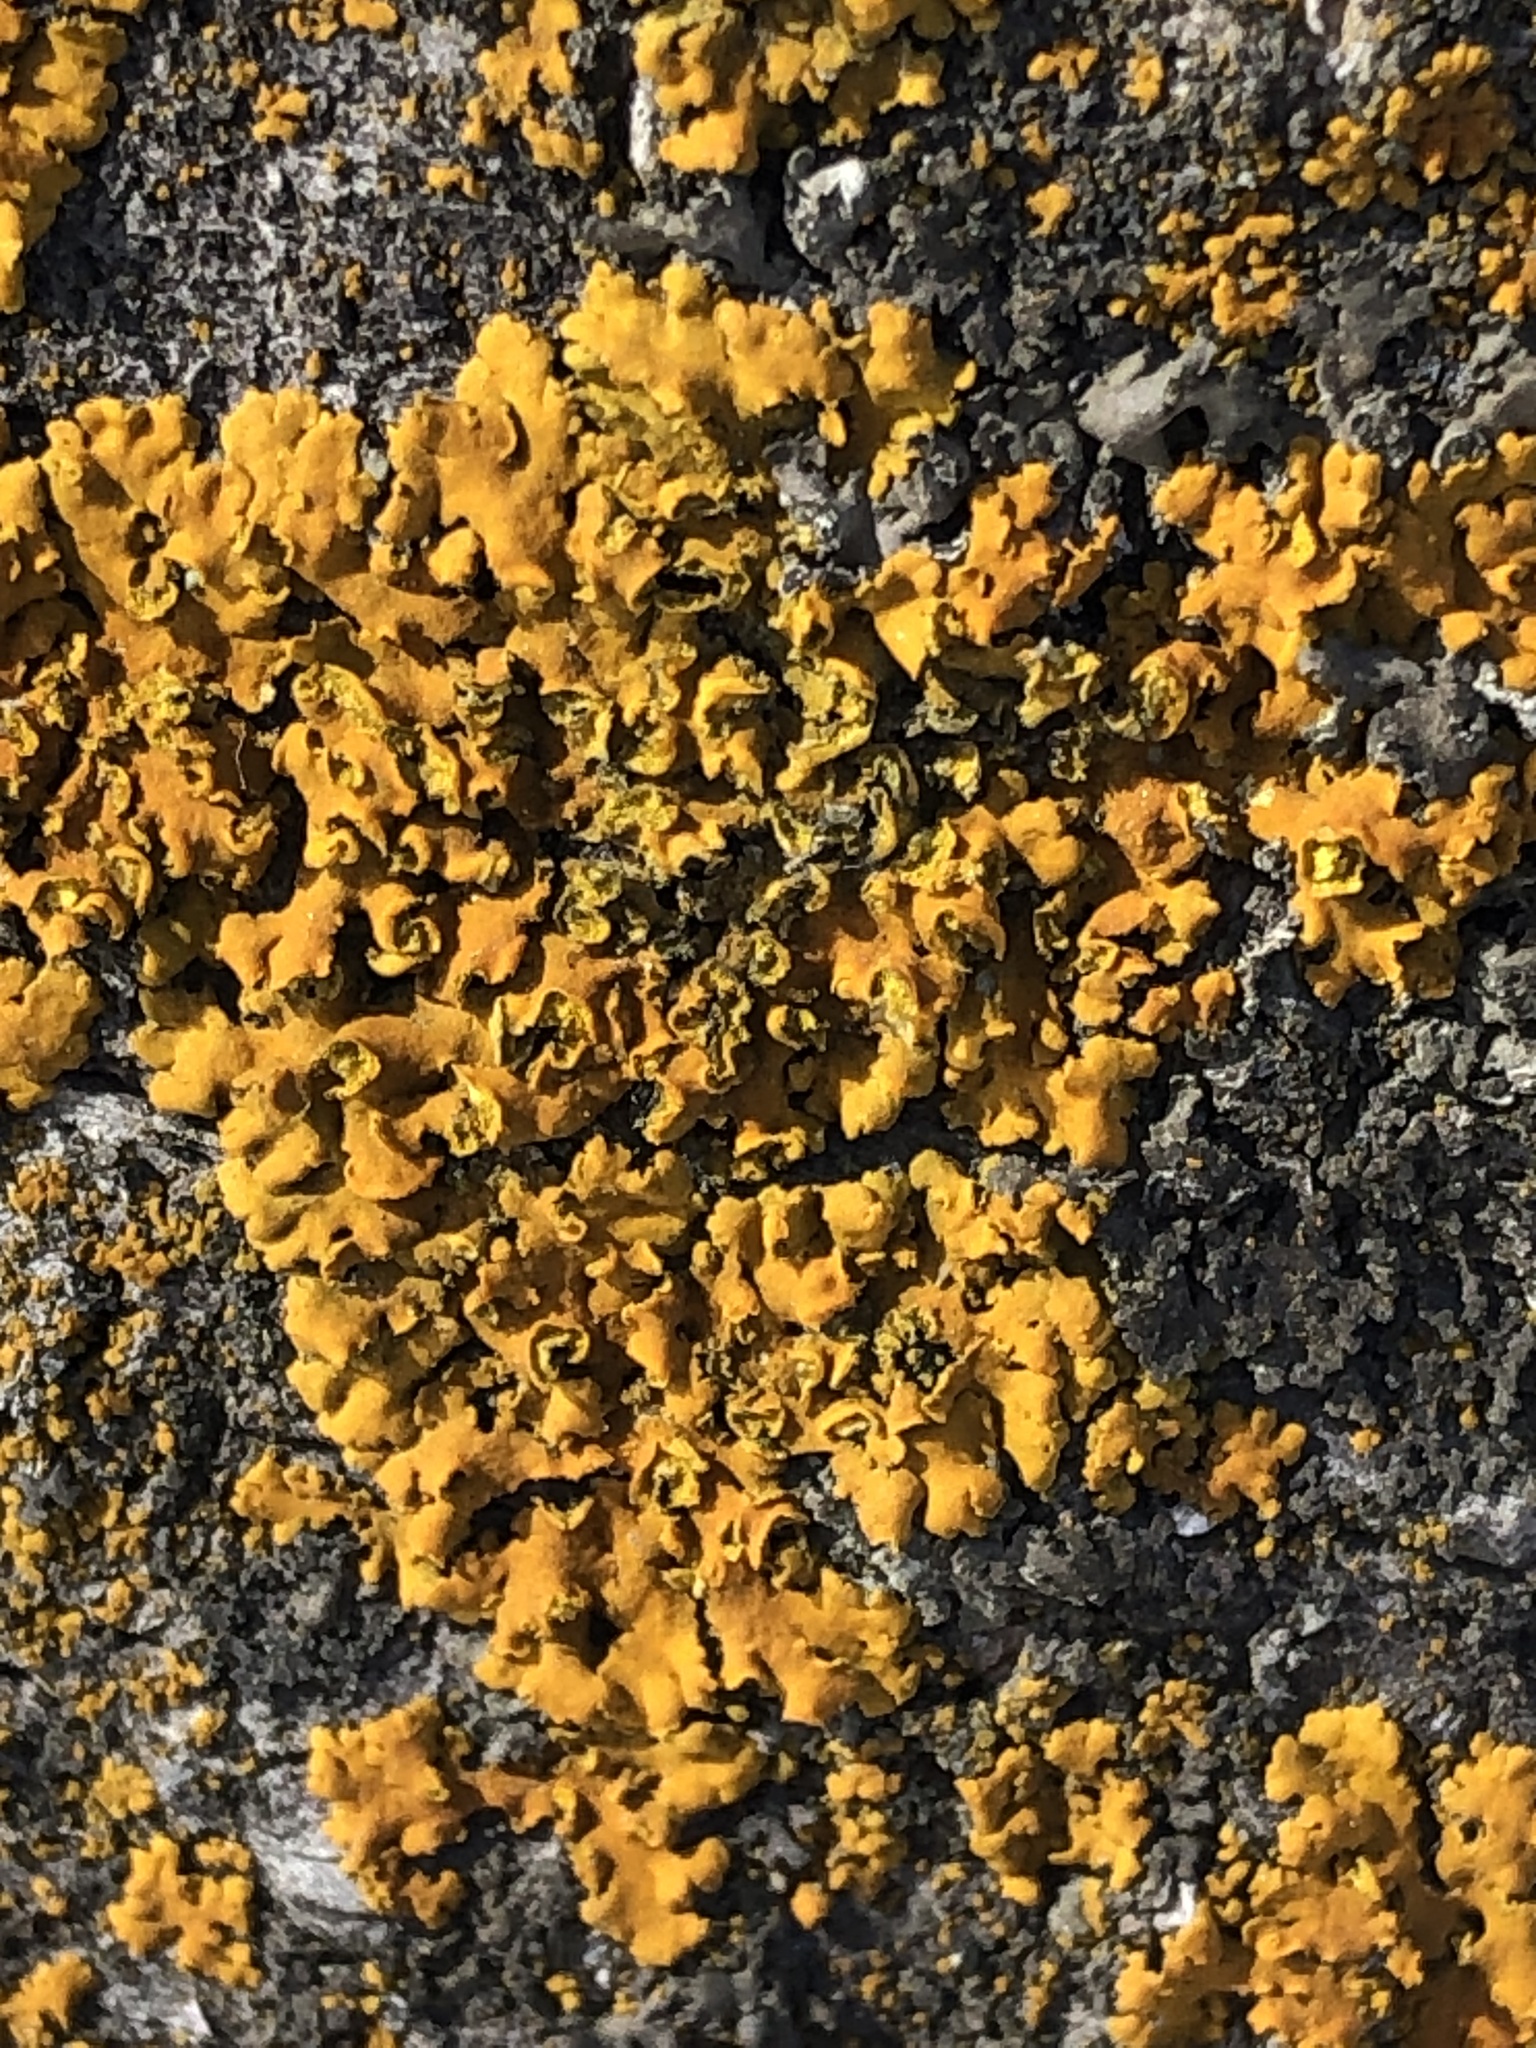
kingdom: Fungi
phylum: Ascomycota
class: Lecanoromycetes
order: Teloschistales
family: Teloschistaceae
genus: Oxneria
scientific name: Oxneria fallax
